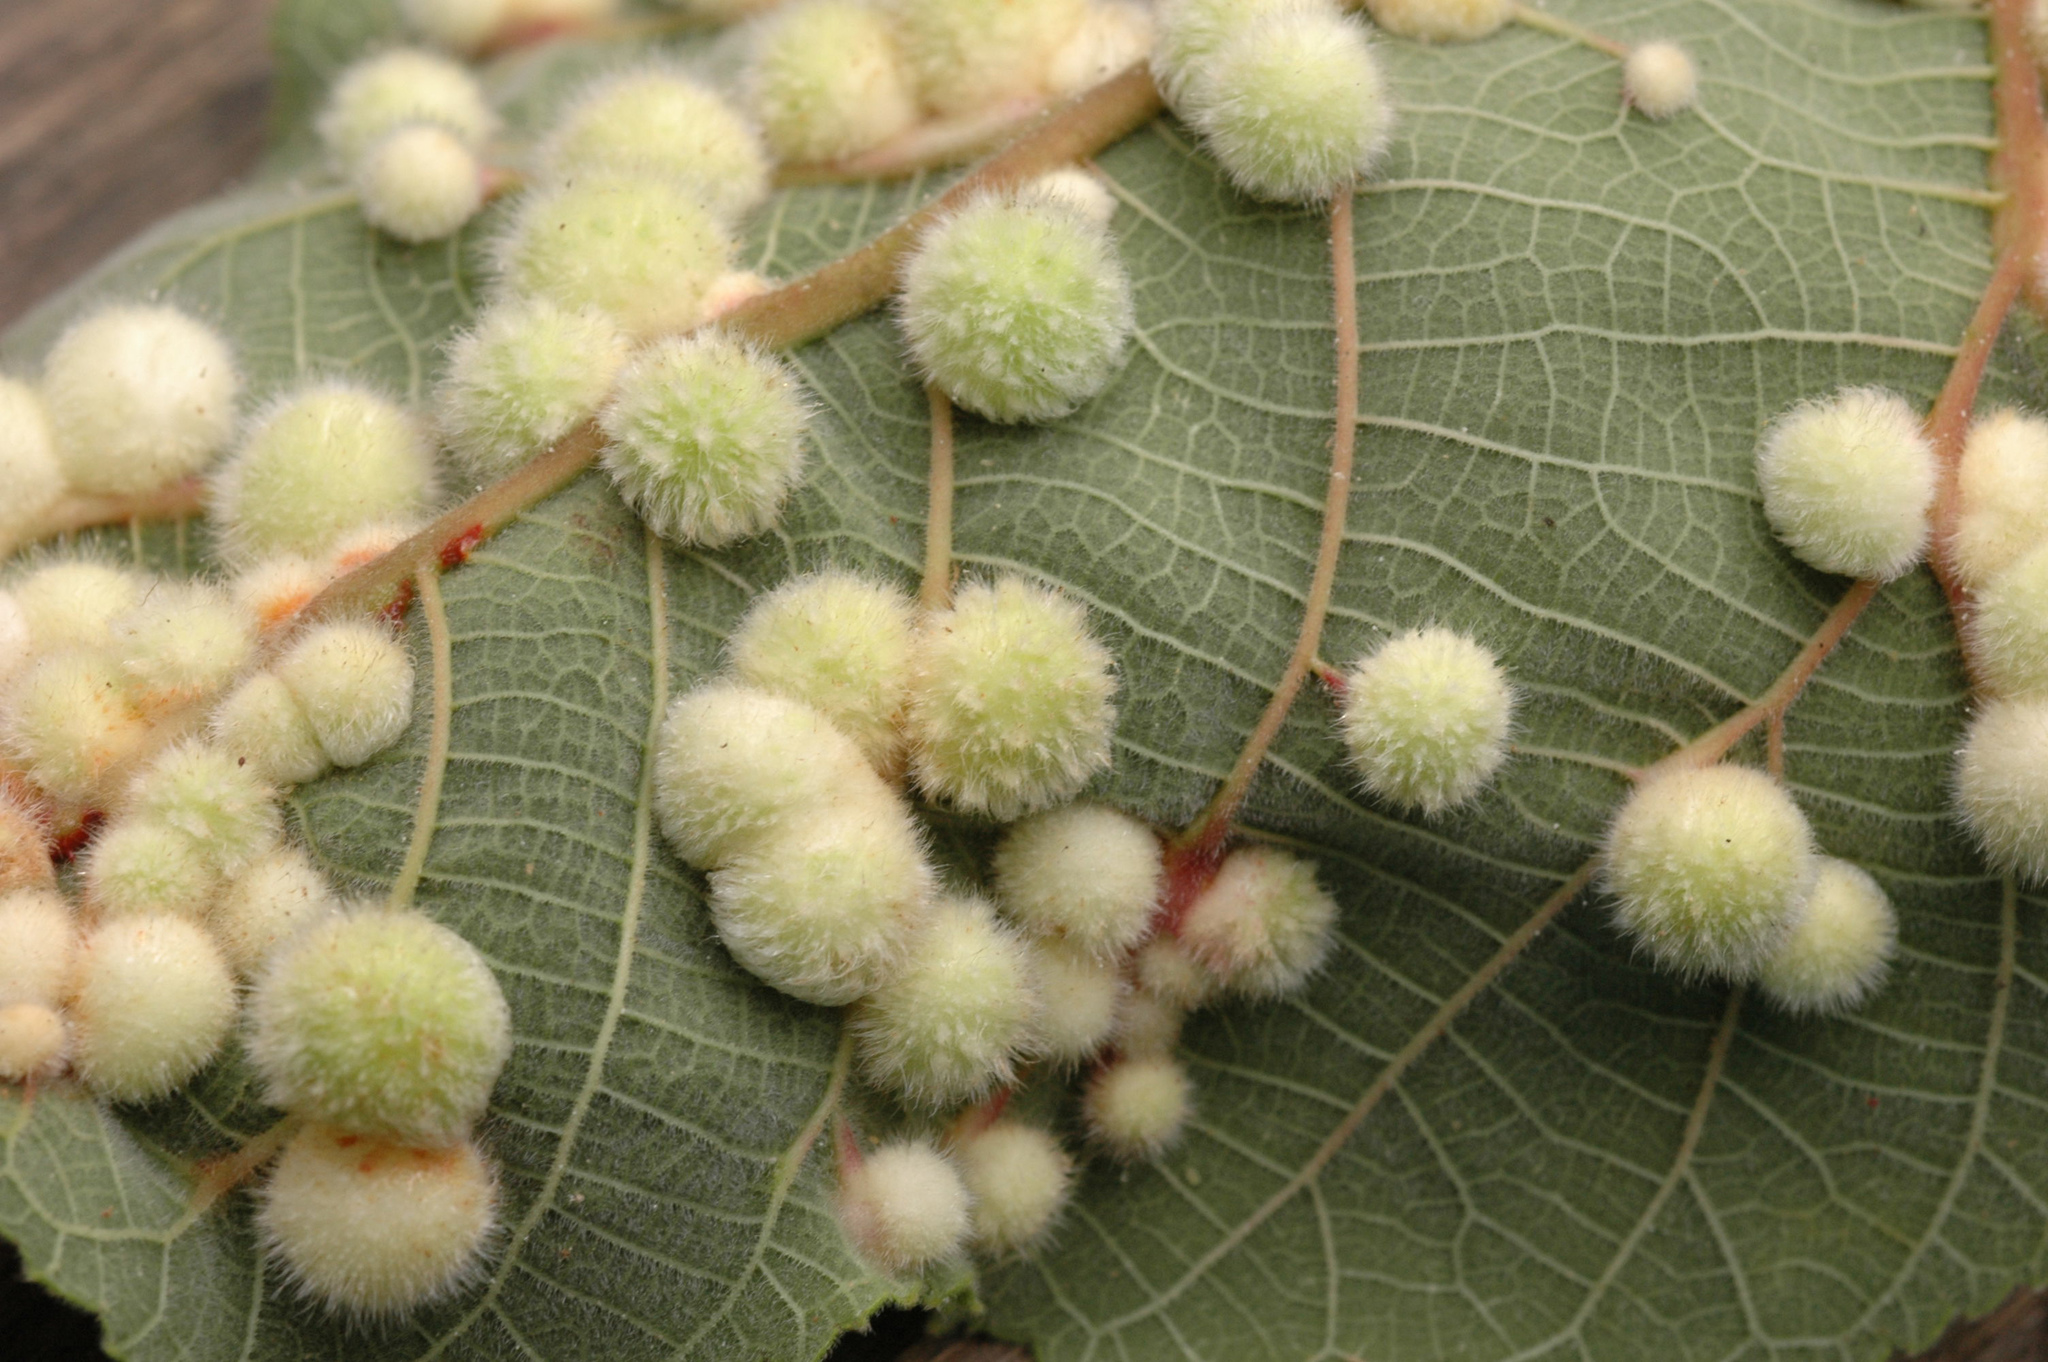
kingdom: Animalia
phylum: Arthropoda
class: Insecta
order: Diptera
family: Cecidomyiidae
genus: Schizomyia
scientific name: Schizomyia broussonetiae
